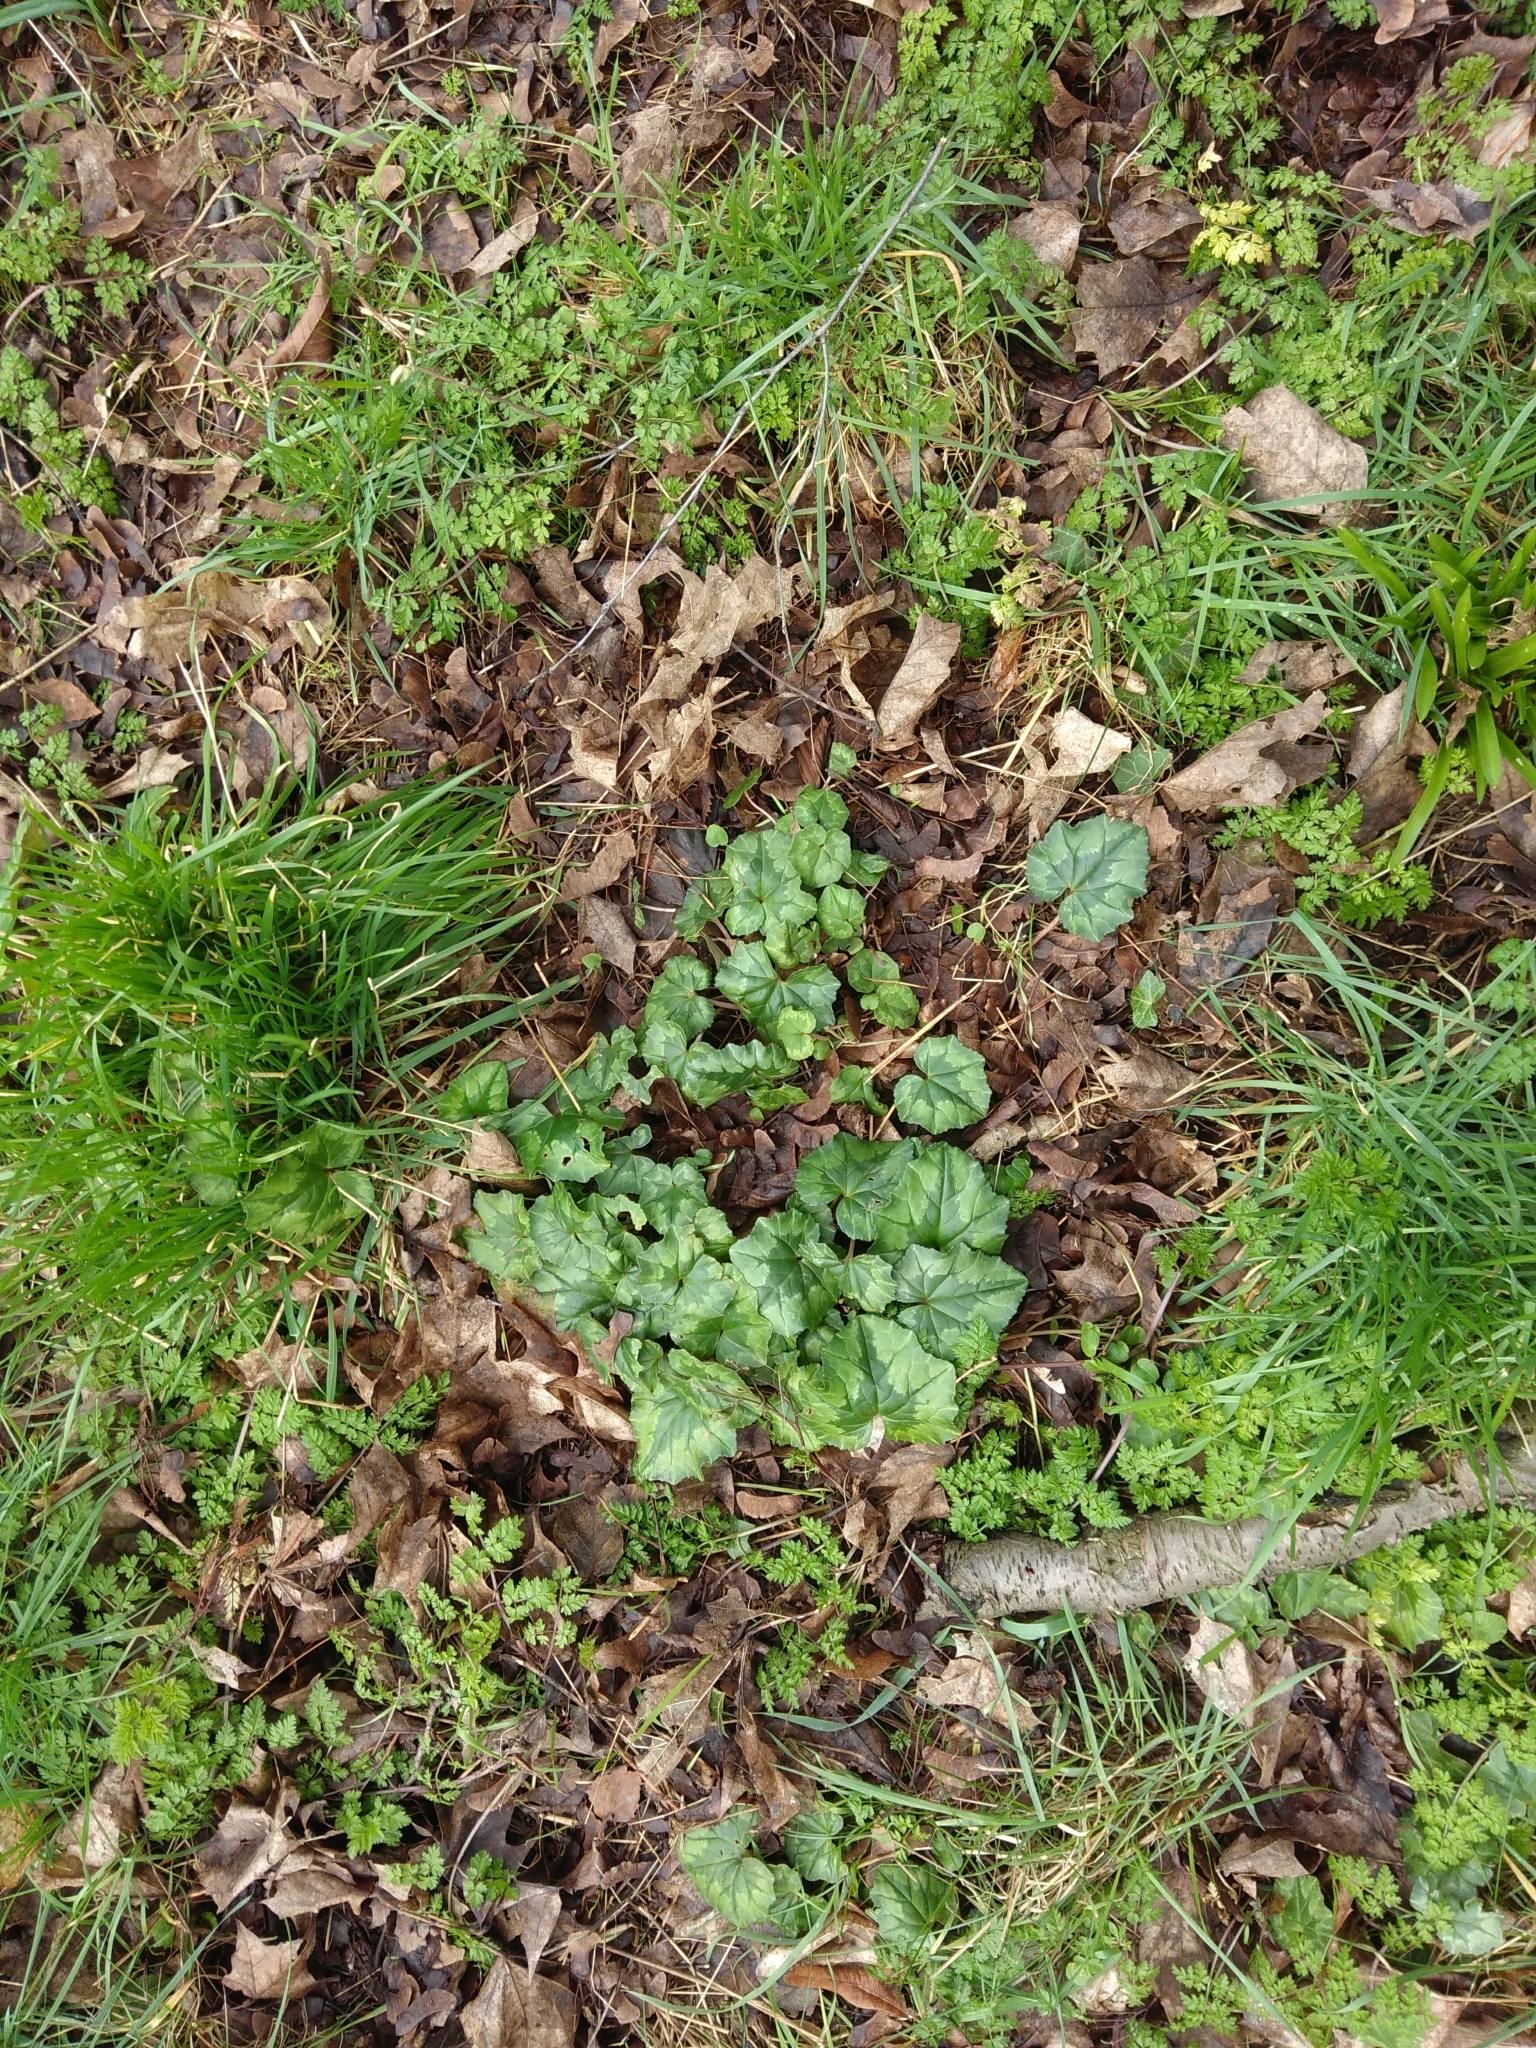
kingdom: Plantae
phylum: Tracheophyta
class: Magnoliopsida
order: Ericales
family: Primulaceae
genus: Cyclamen
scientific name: Cyclamen hederifolium
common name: Sowbread
